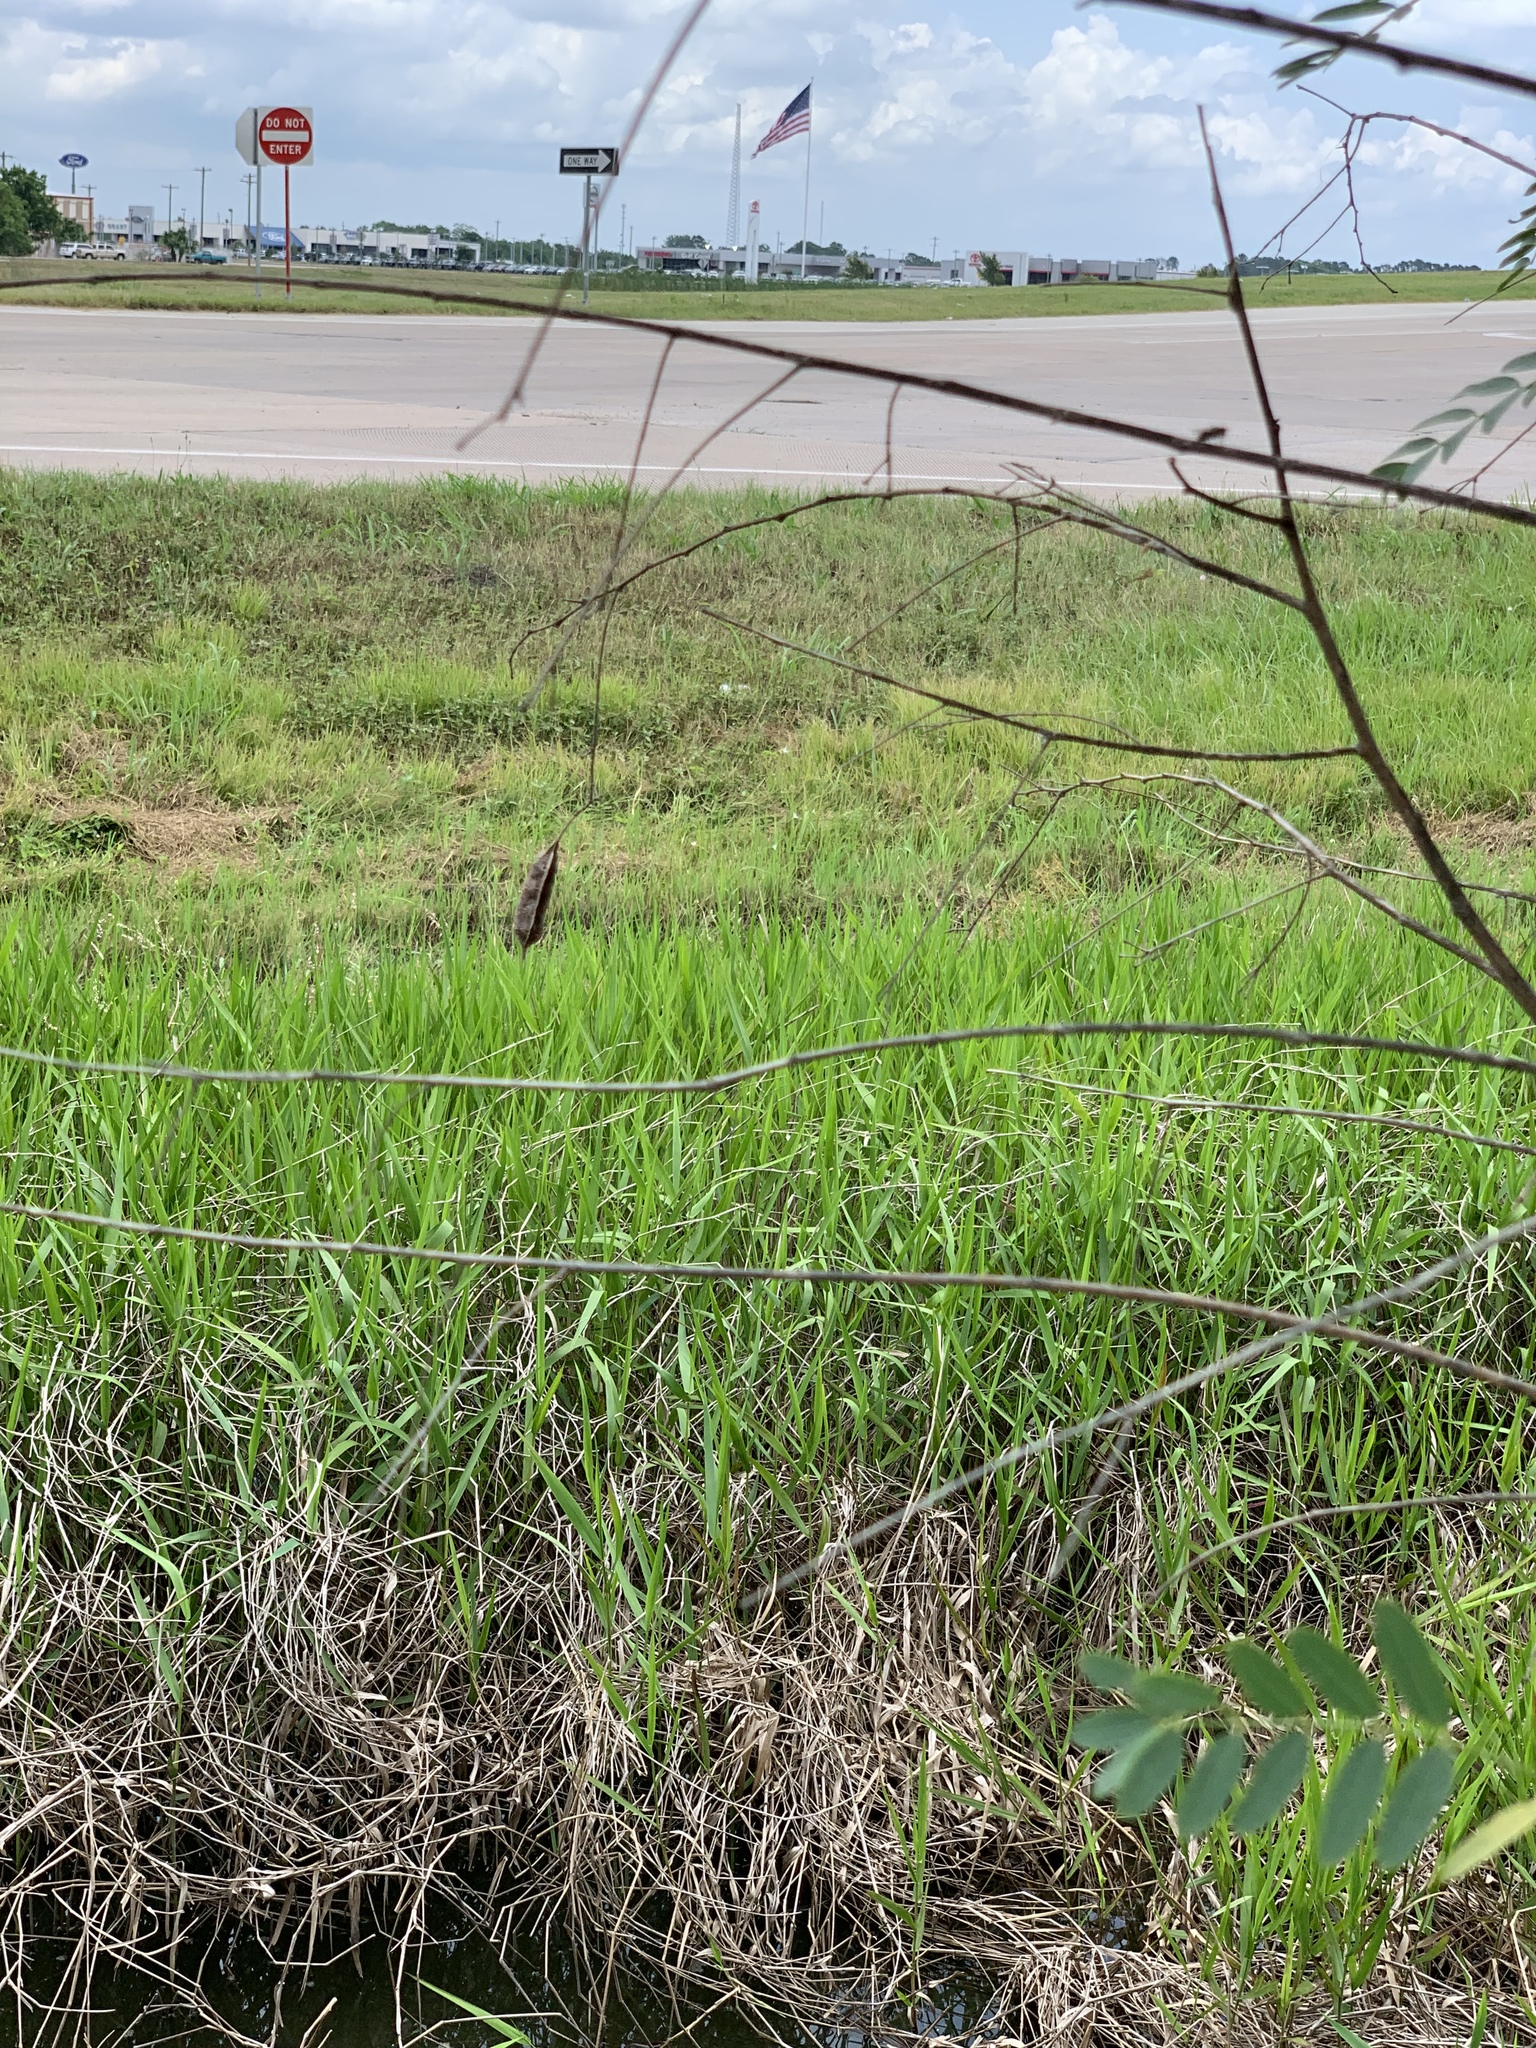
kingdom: Plantae
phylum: Tracheophyta
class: Magnoliopsida
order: Fabales
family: Fabaceae
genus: Sesbania
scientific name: Sesbania drummondii
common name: Poison-bean
